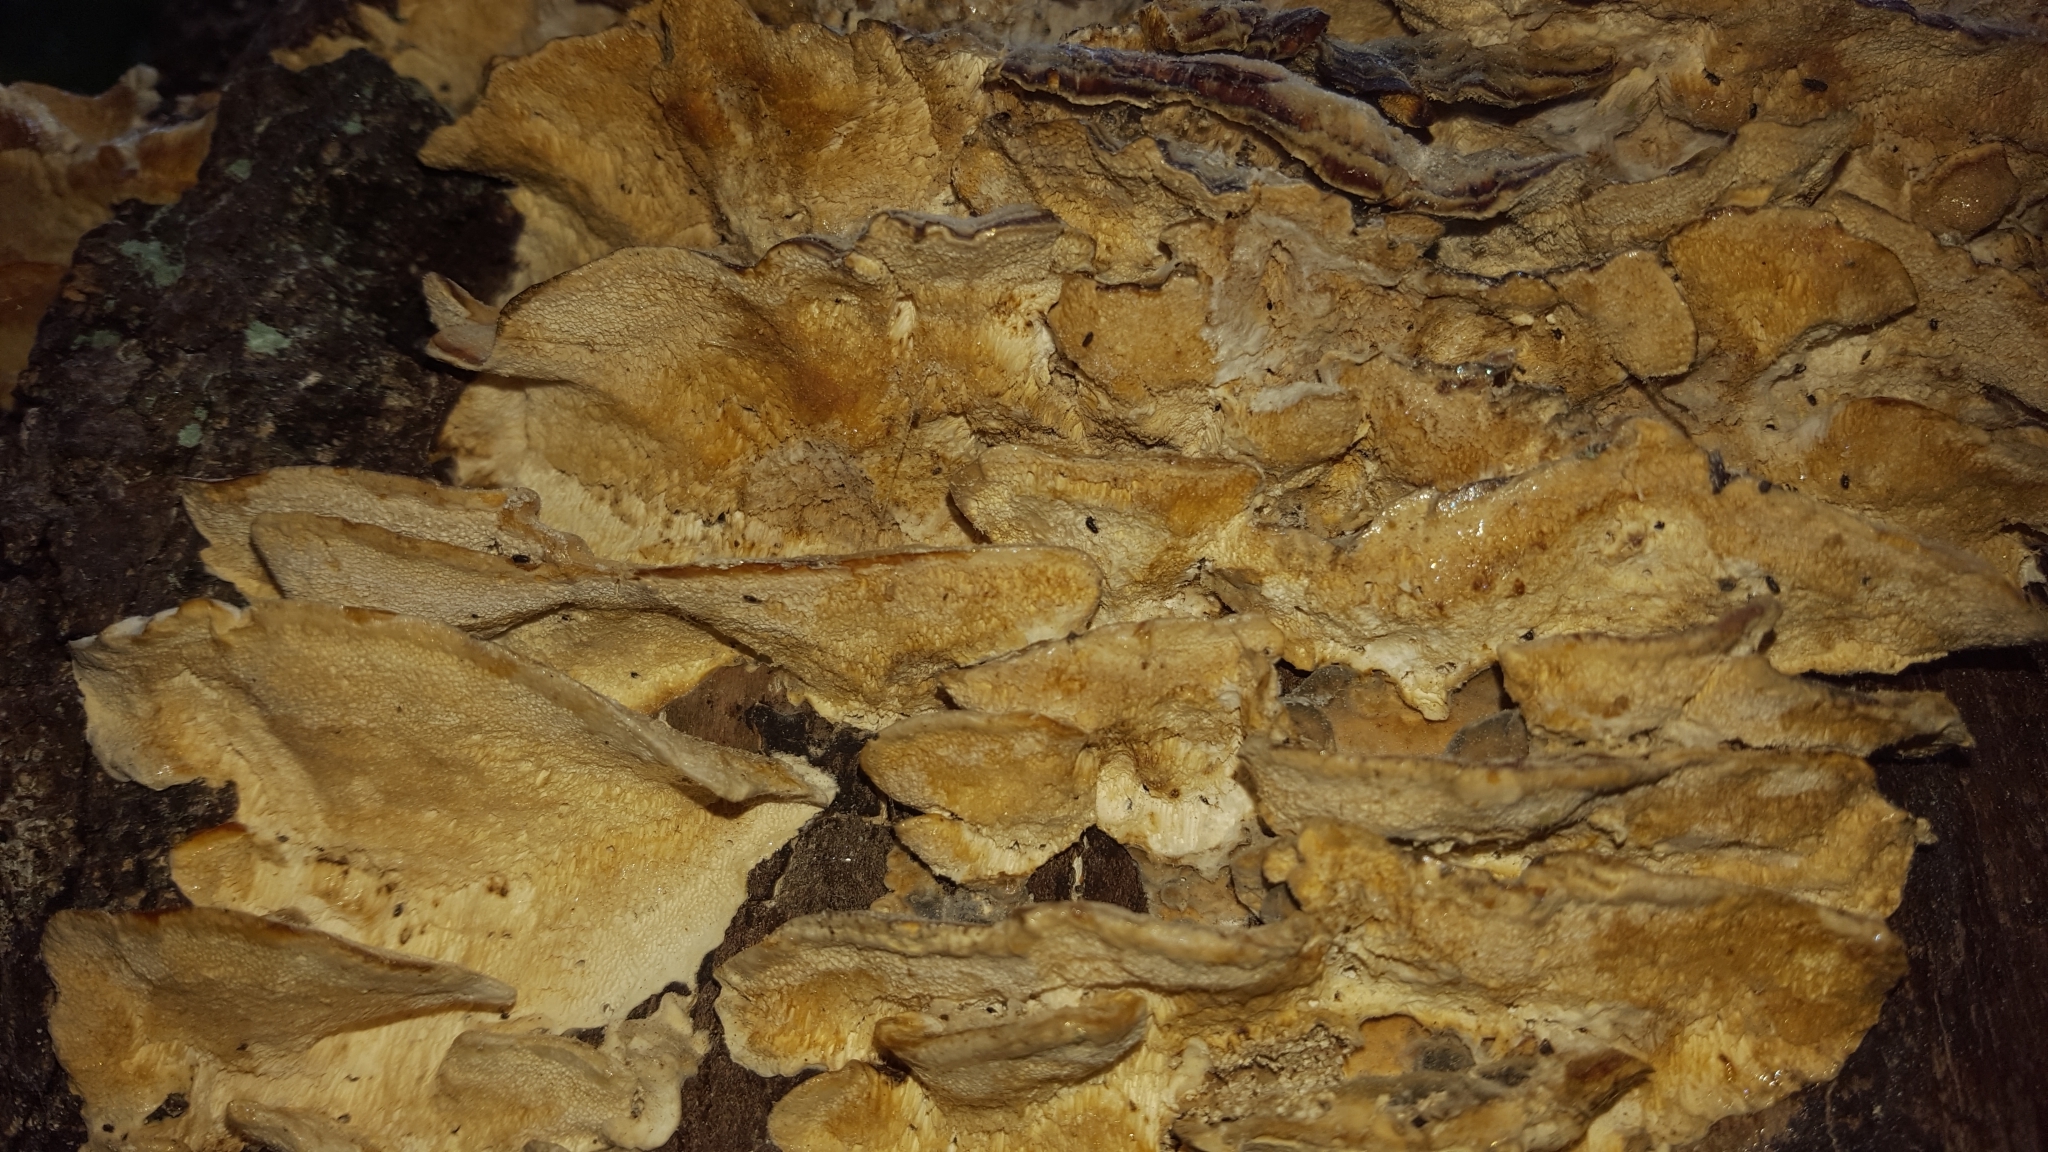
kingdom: Fungi
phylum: Basidiomycota
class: Agaricomycetes
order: Polyporales
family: Polyporaceae
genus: Trametes
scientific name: Trametes versicolor
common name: Turkeytail
